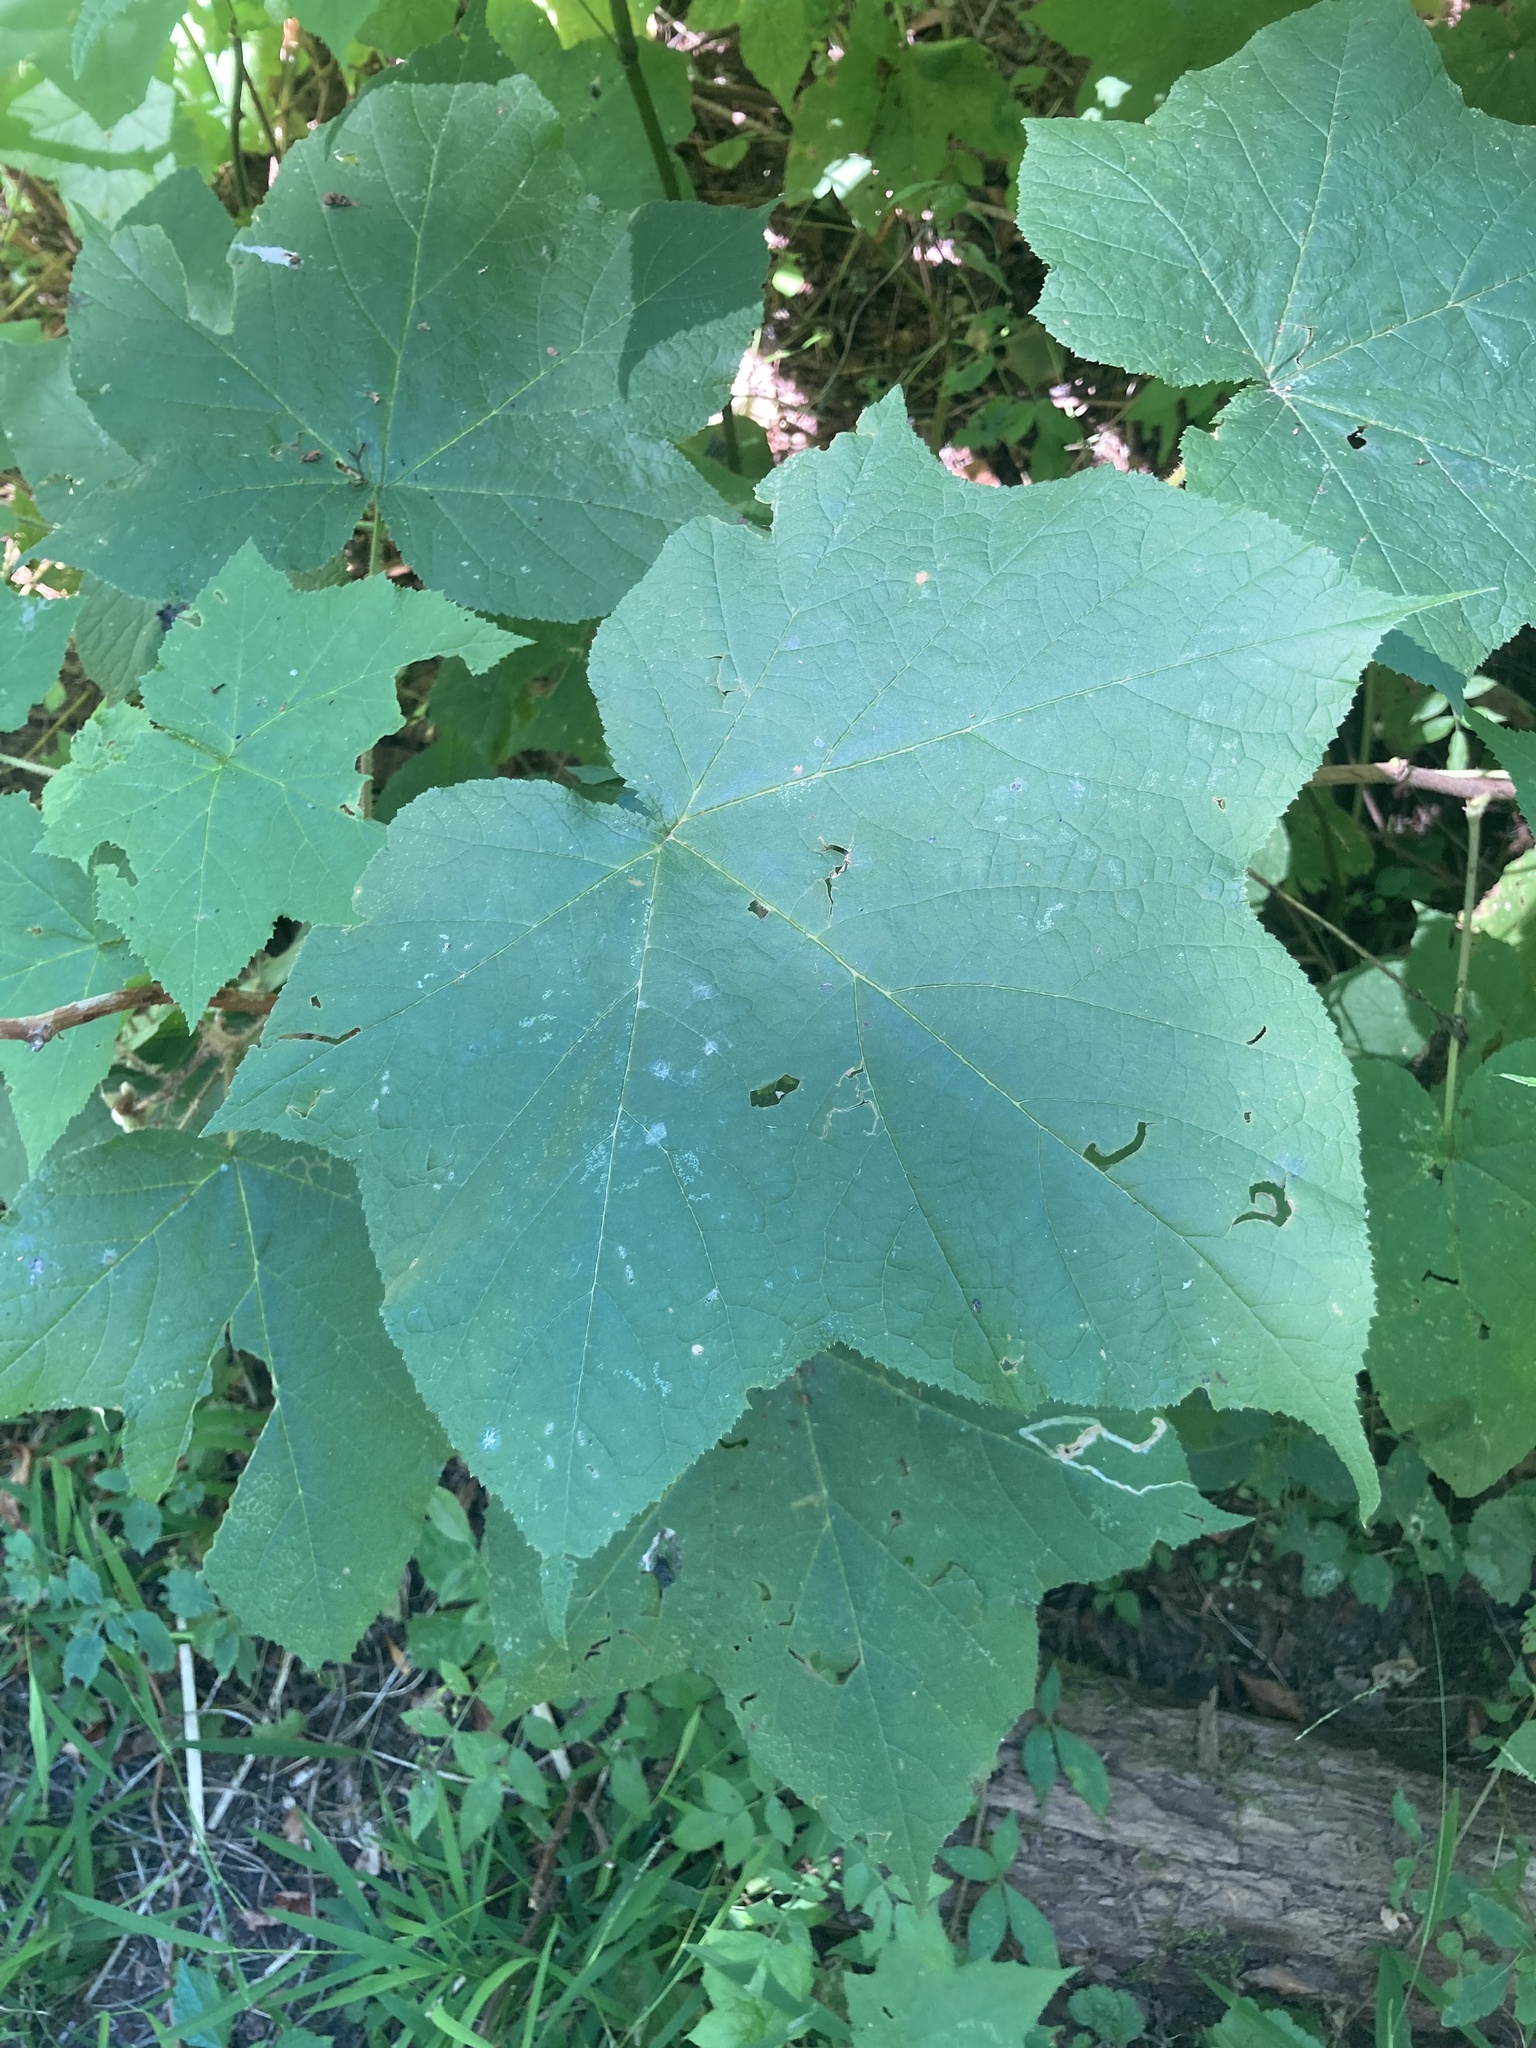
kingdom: Plantae
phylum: Tracheophyta
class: Magnoliopsida
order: Rosales
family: Rosaceae
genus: Rubus
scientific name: Rubus odoratus
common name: Purple-flowered raspberry
